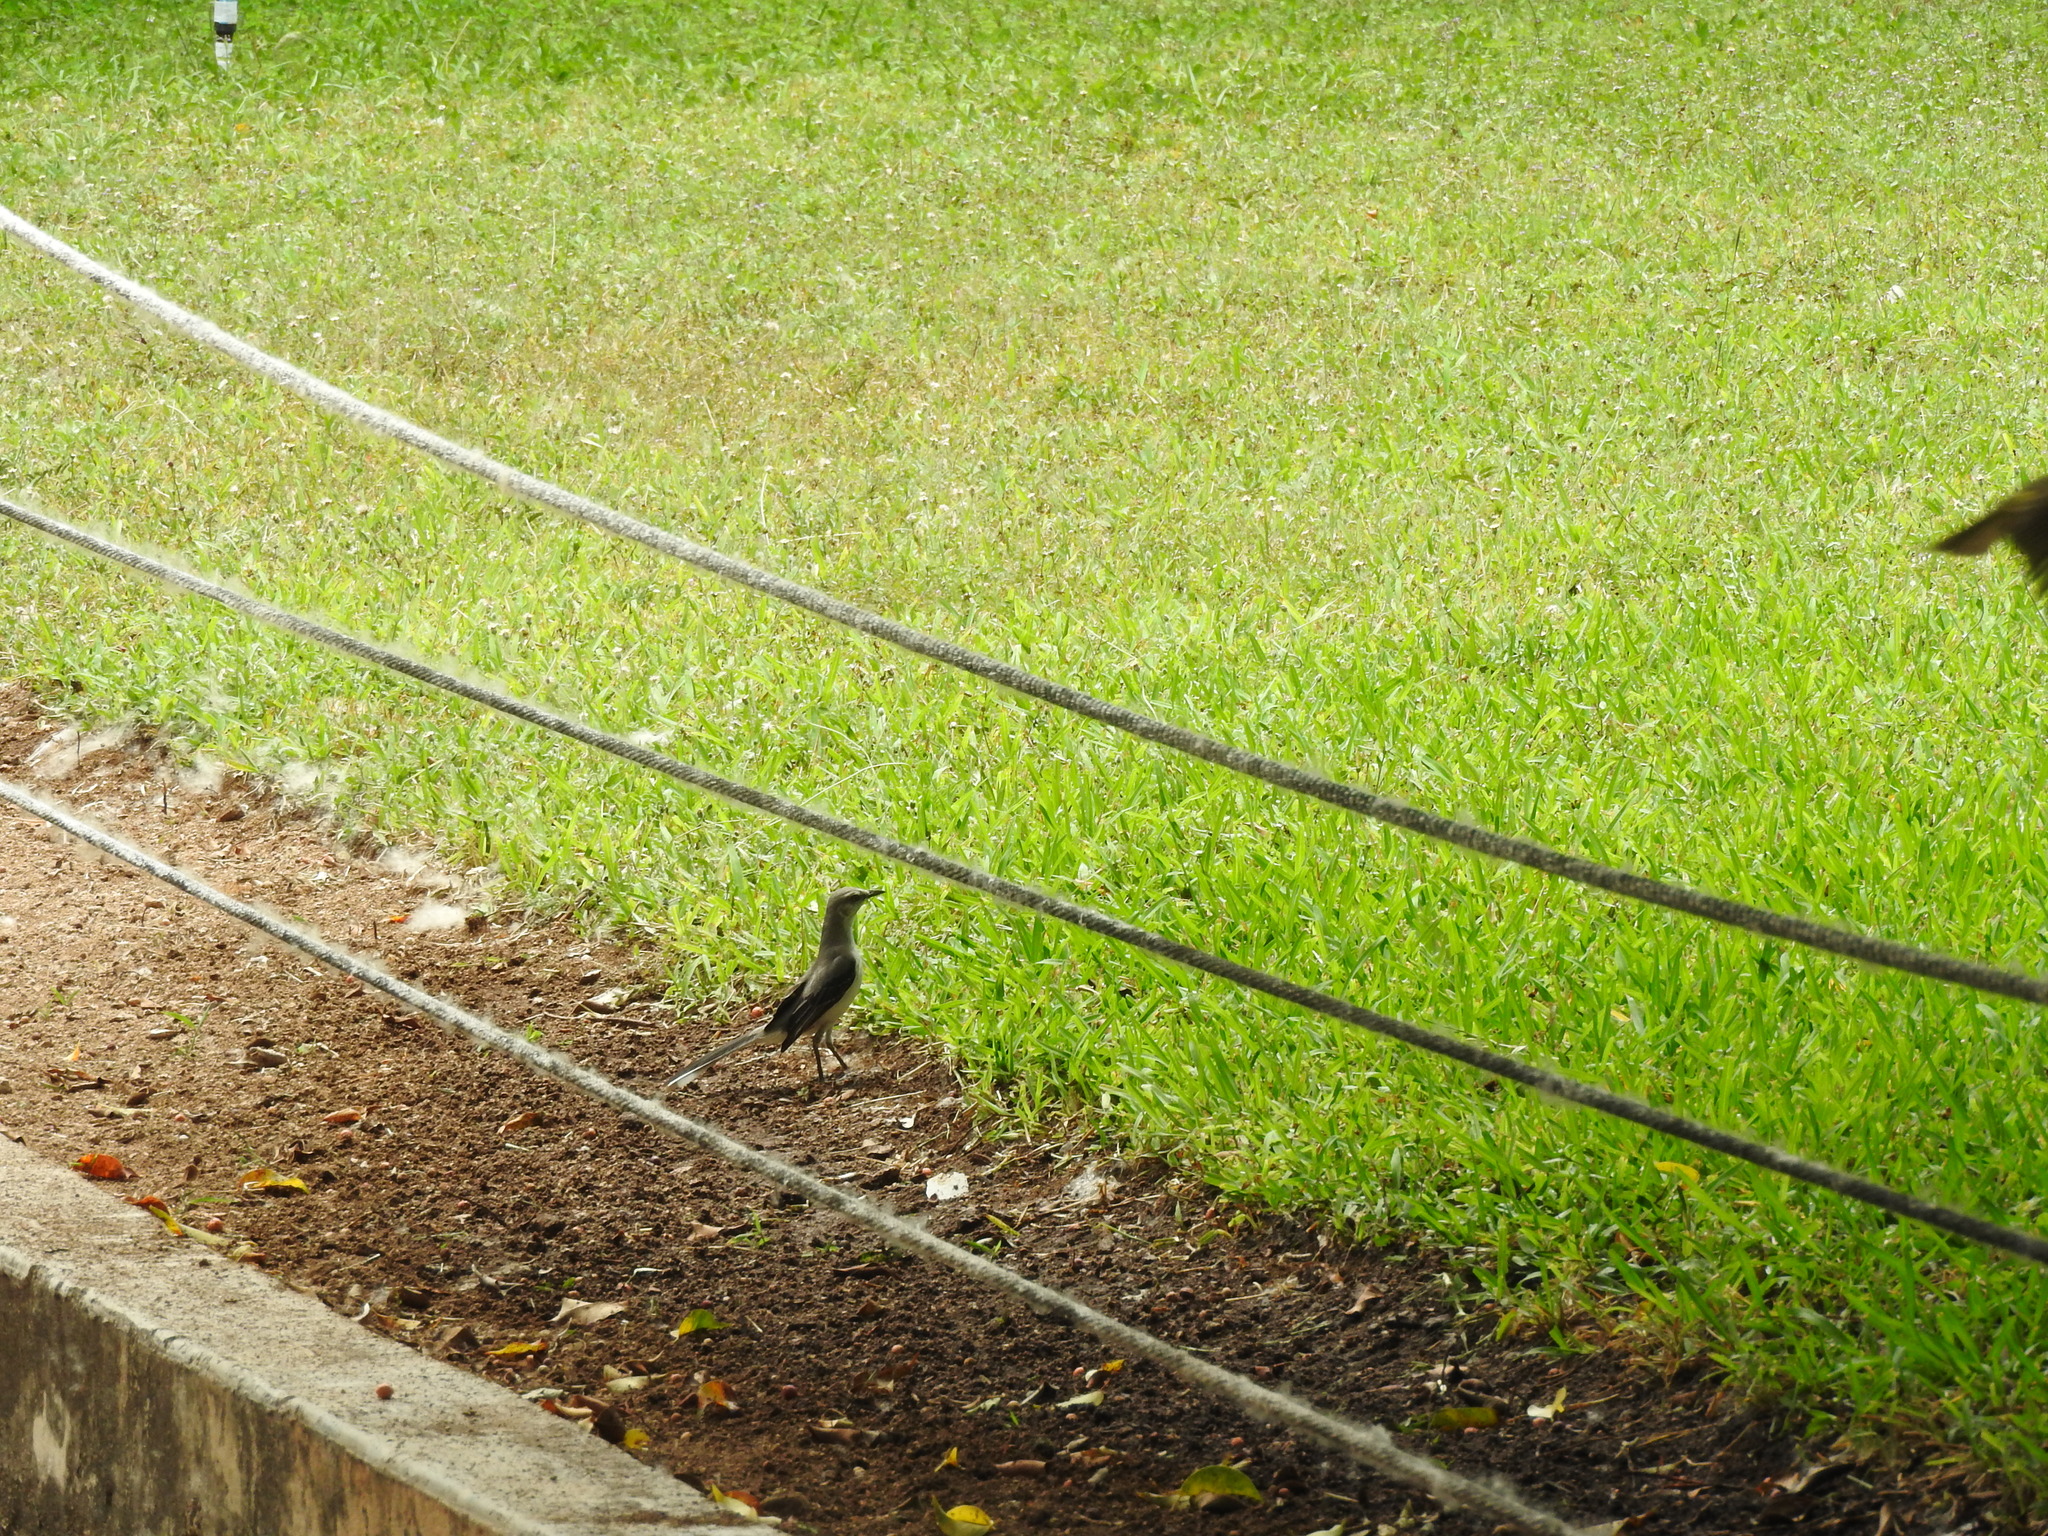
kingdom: Animalia
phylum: Chordata
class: Aves
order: Passeriformes
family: Mimidae
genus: Mimus
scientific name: Mimus gilvus
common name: Tropical mockingbird
